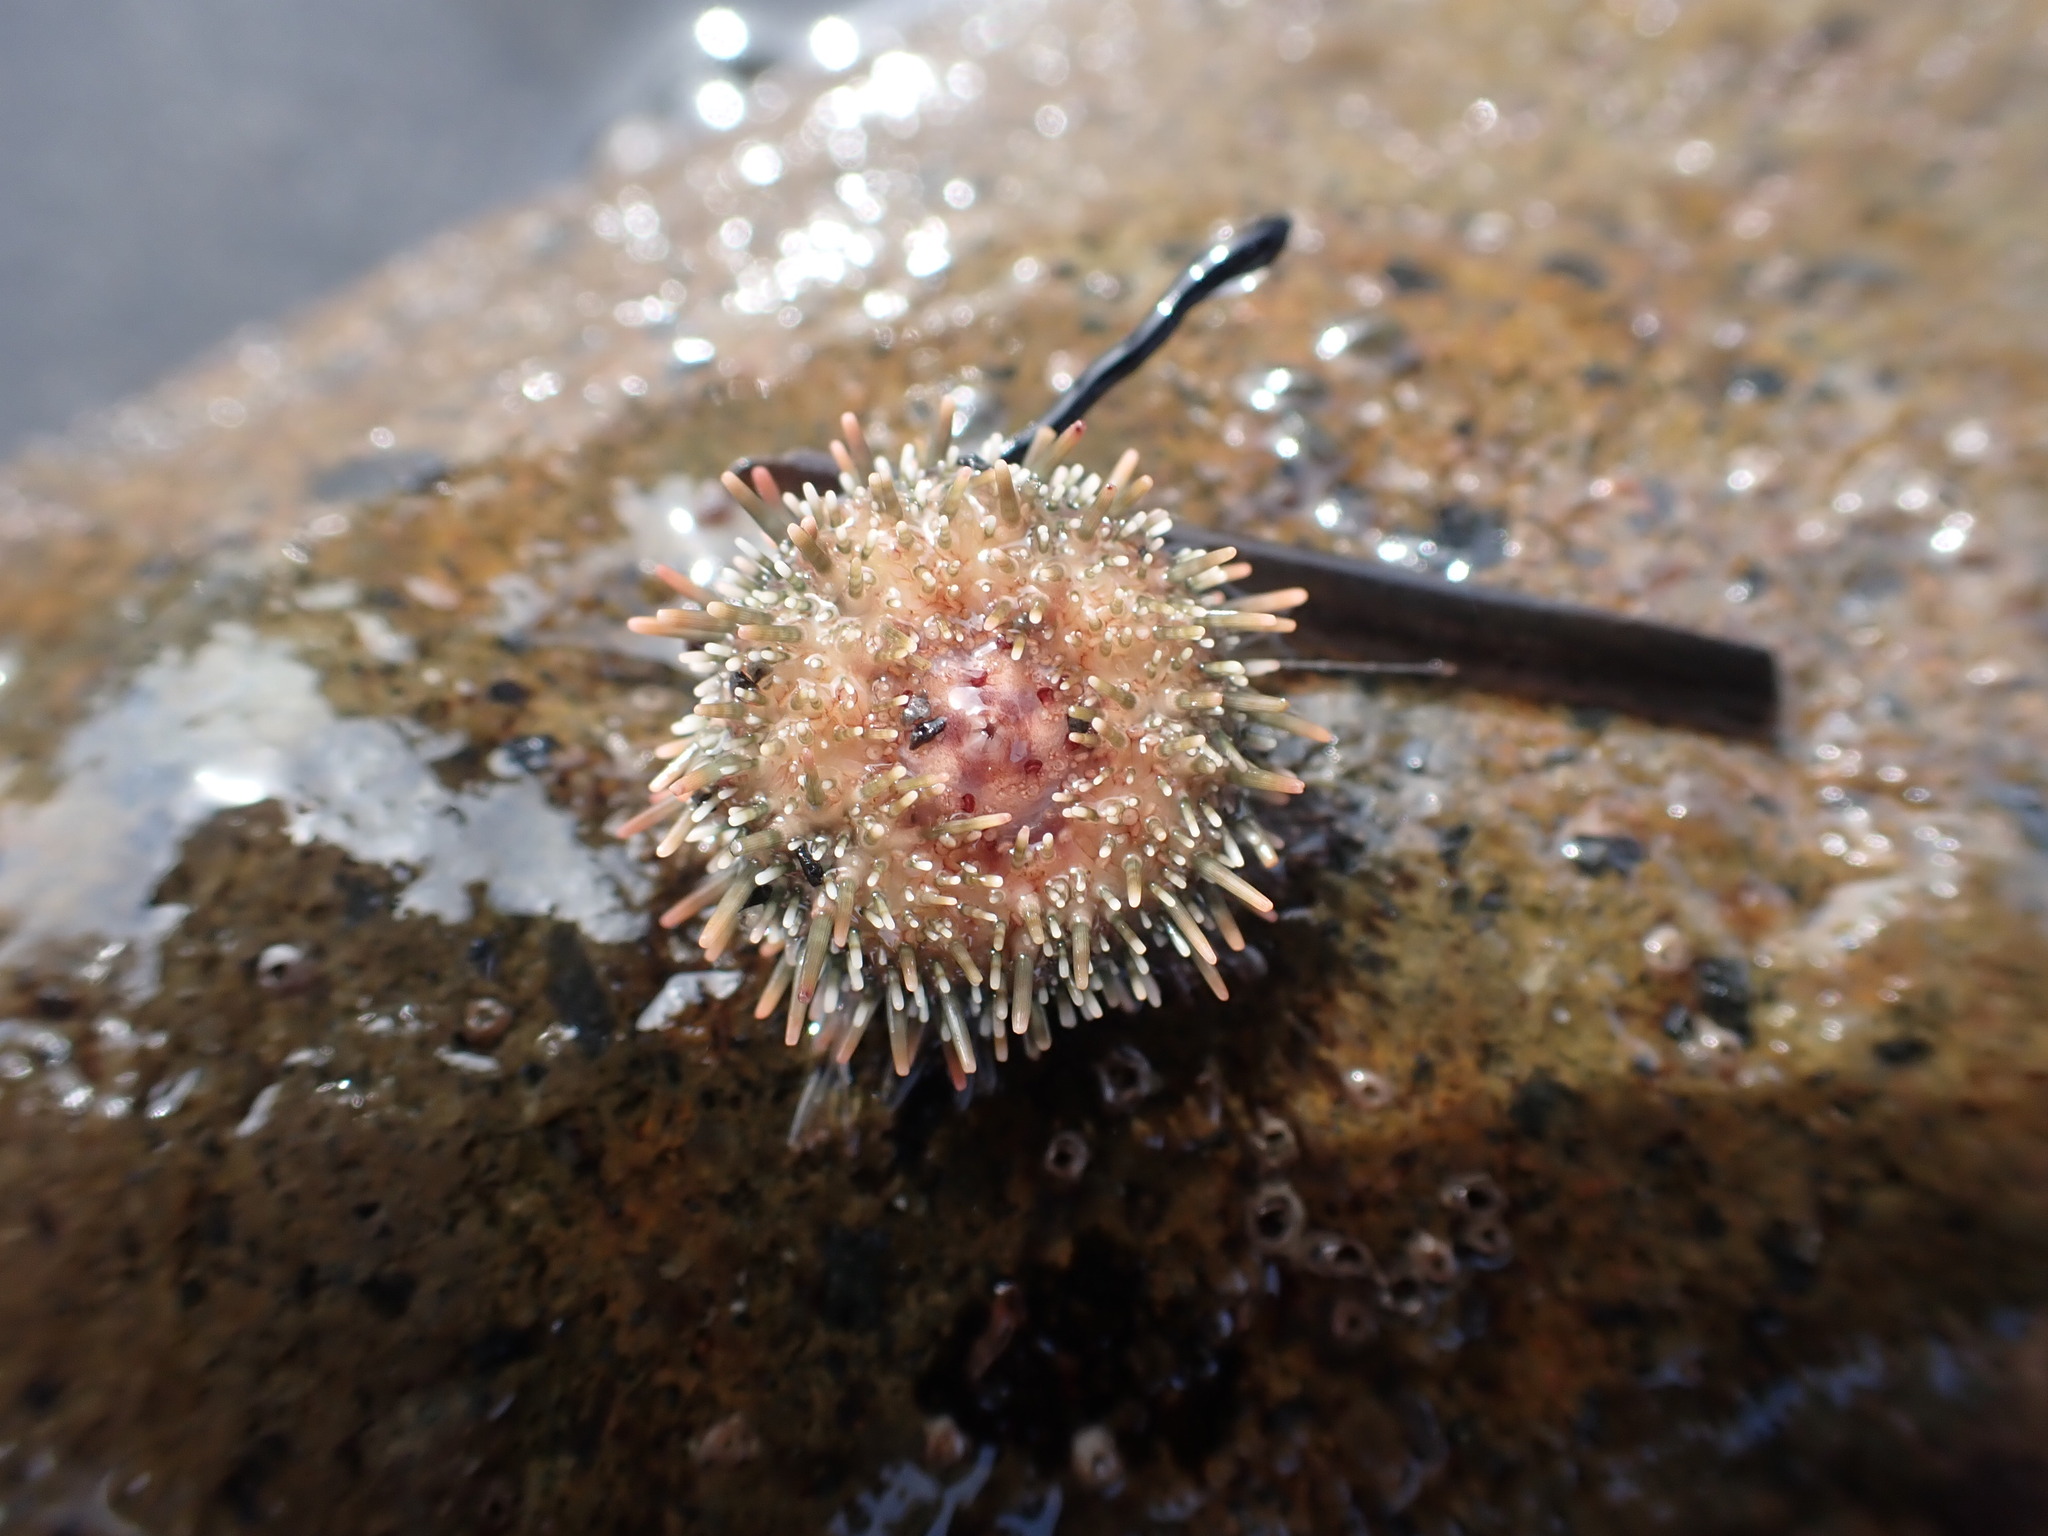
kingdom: Animalia
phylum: Echinodermata
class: Echinoidea
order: Camarodonta
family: Echinometridae
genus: Evechinus
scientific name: Evechinus chloroticus
